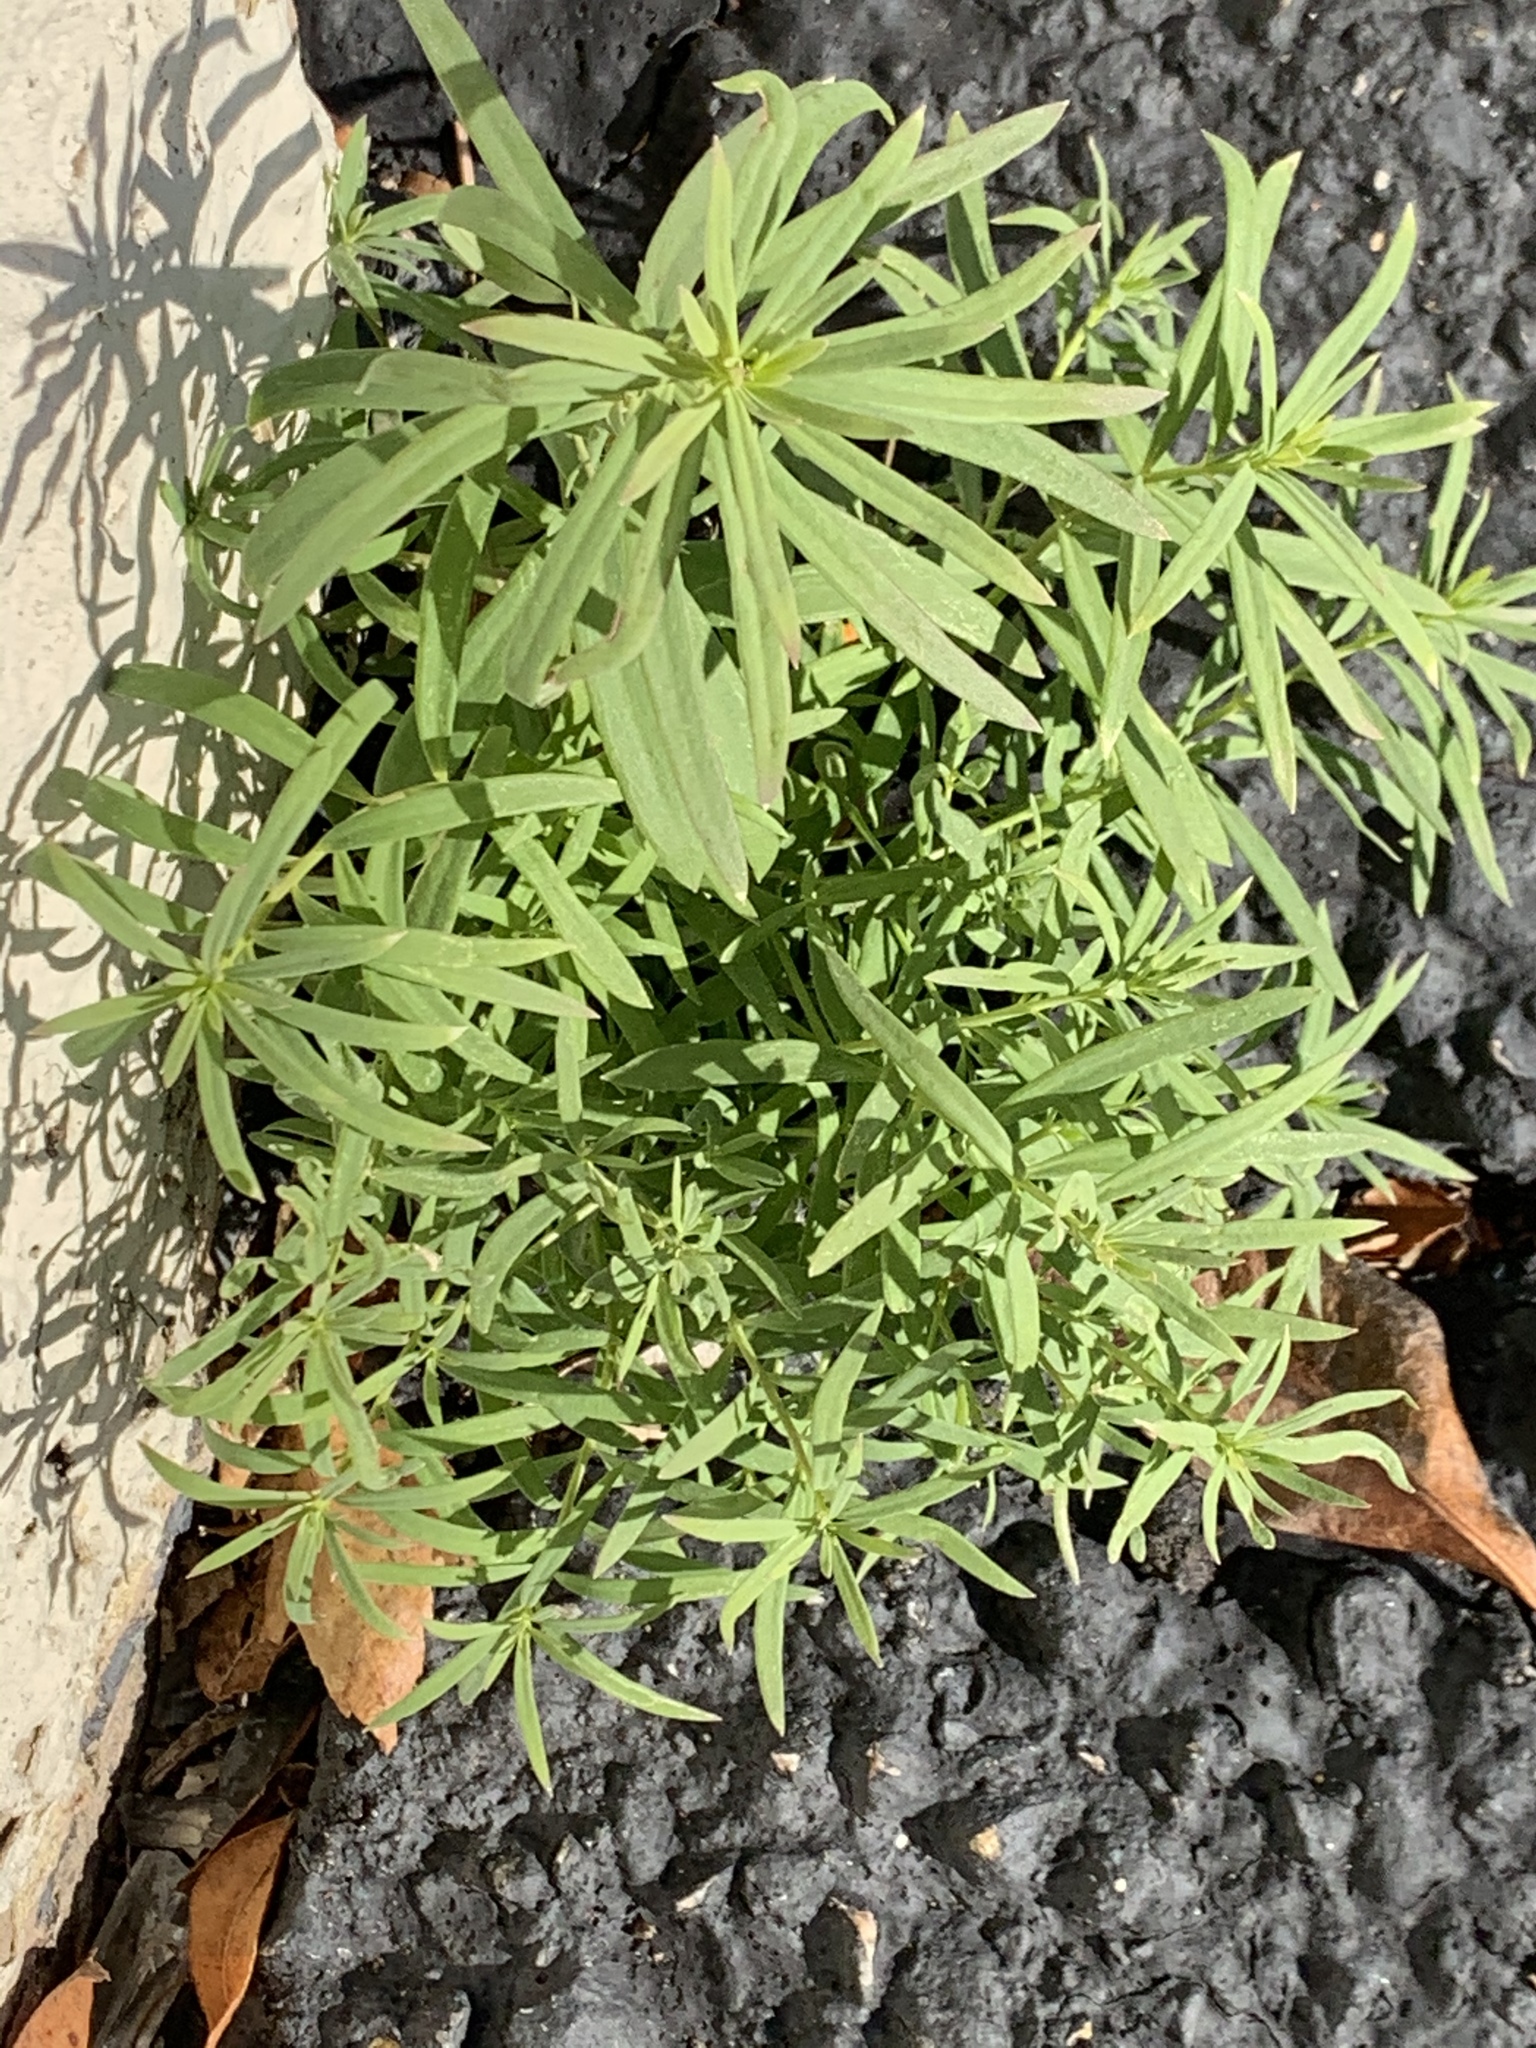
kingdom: Plantae
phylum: Tracheophyta
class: Magnoliopsida
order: Lamiales
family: Plantaginaceae
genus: Linaria
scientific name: Linaria vulgaris
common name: Butter and eggs
